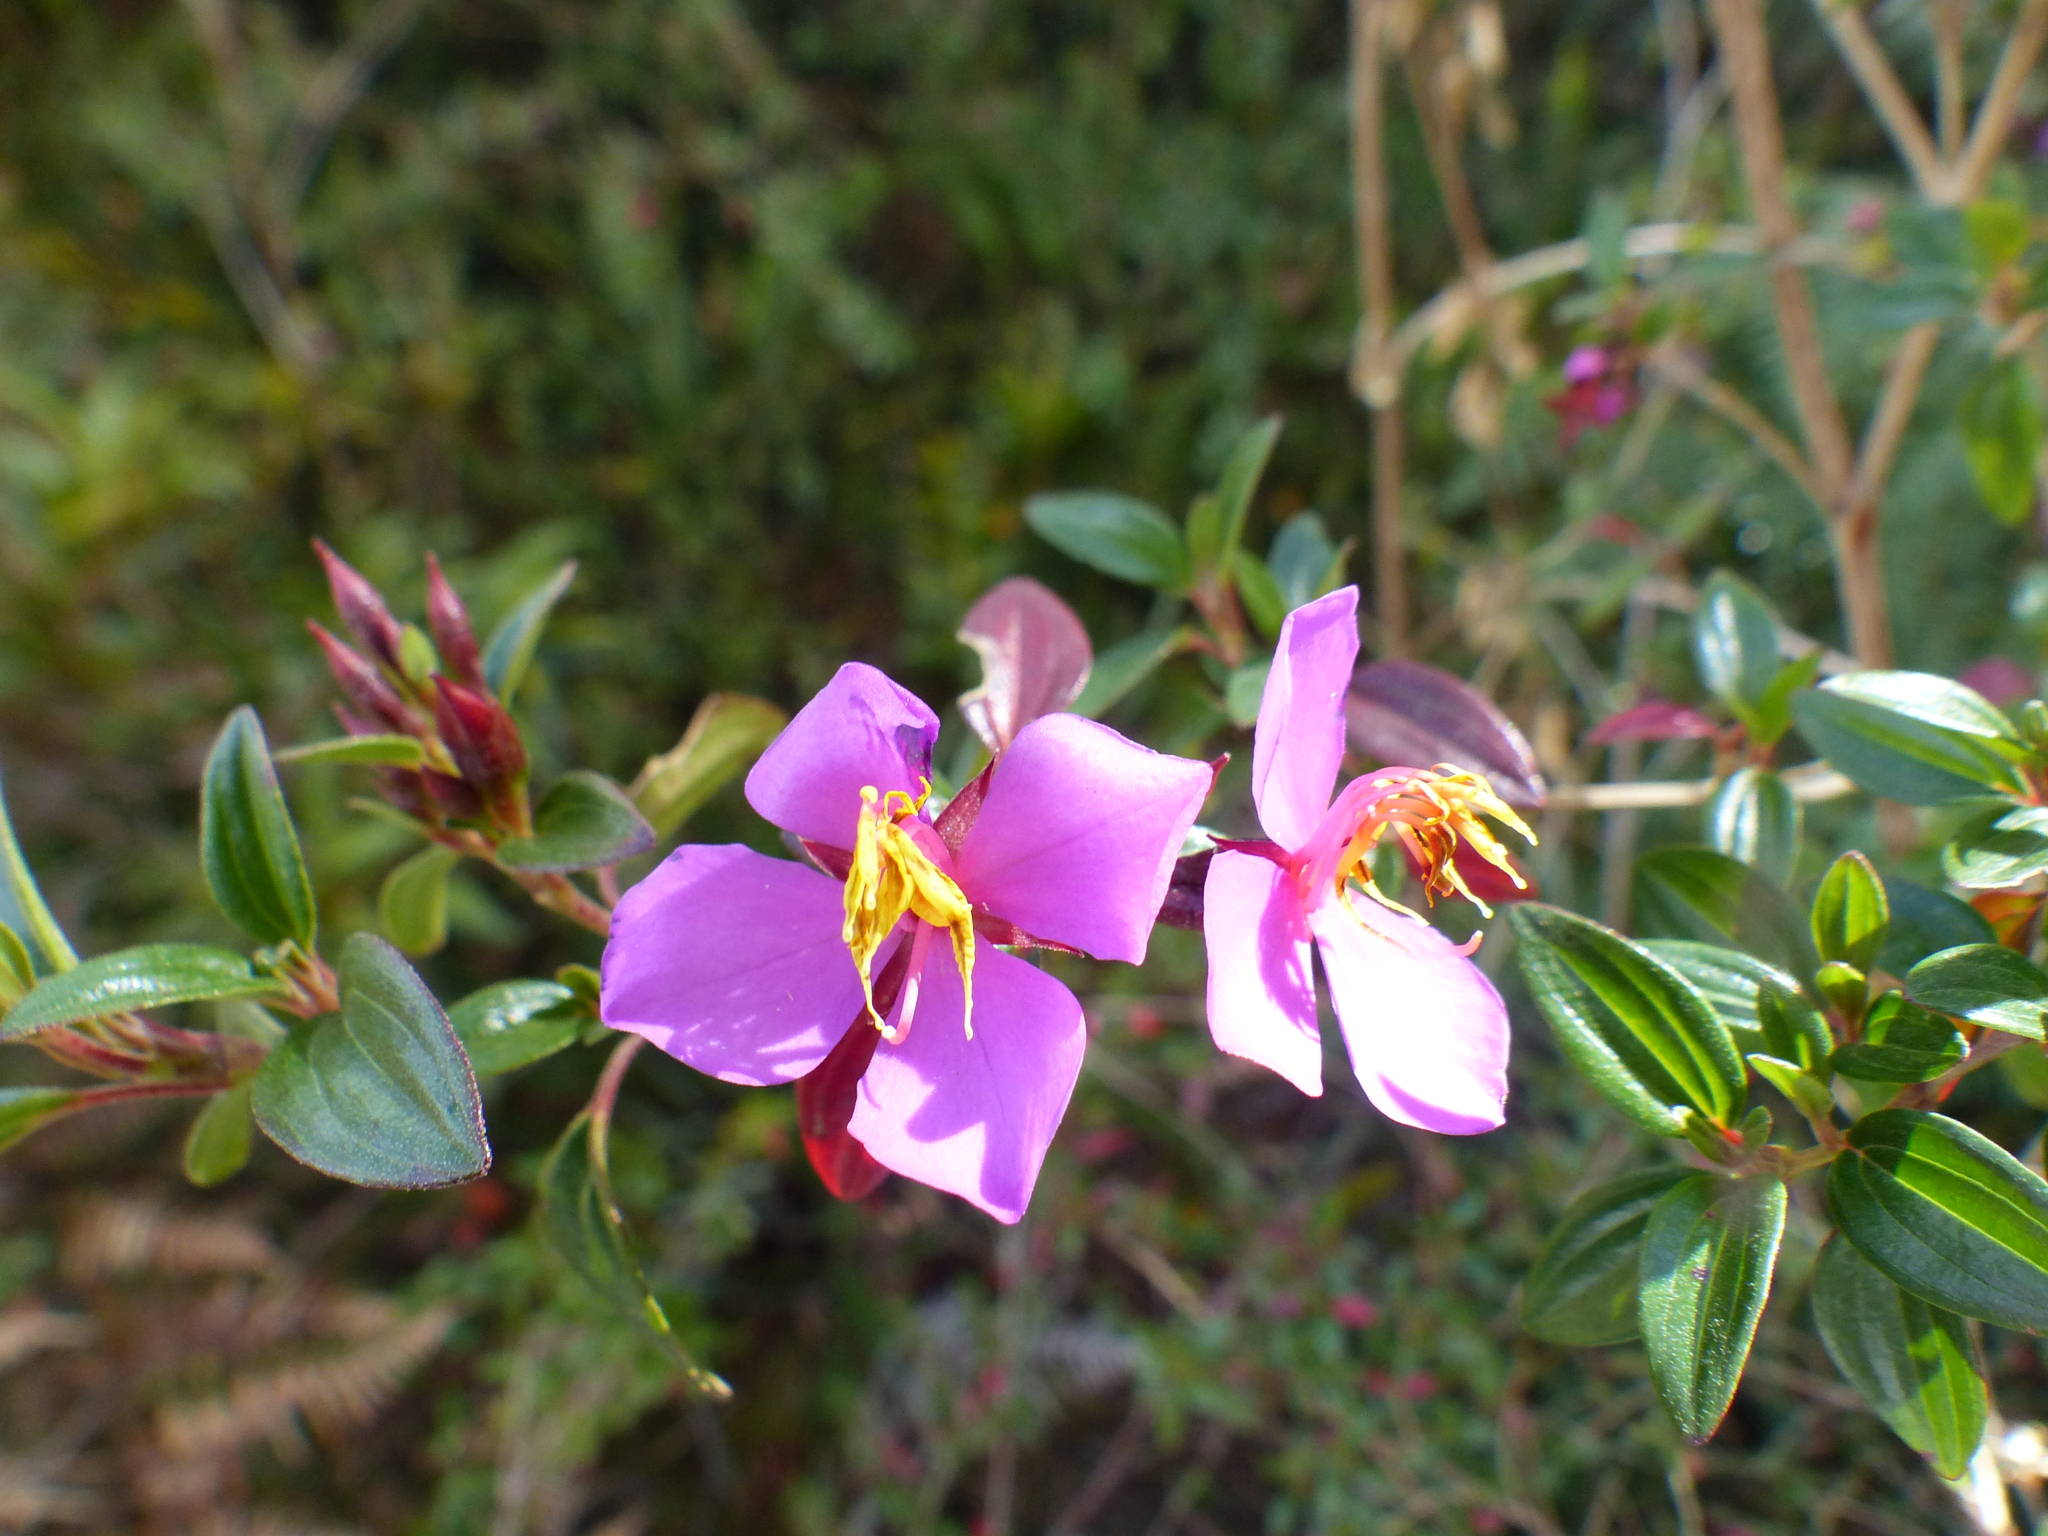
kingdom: Plantae
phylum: Tracheophyta
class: Magnoliopsida
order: Myrtales
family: Melastomataceae
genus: Monochaetum
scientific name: Monochaetum myrtoideum
